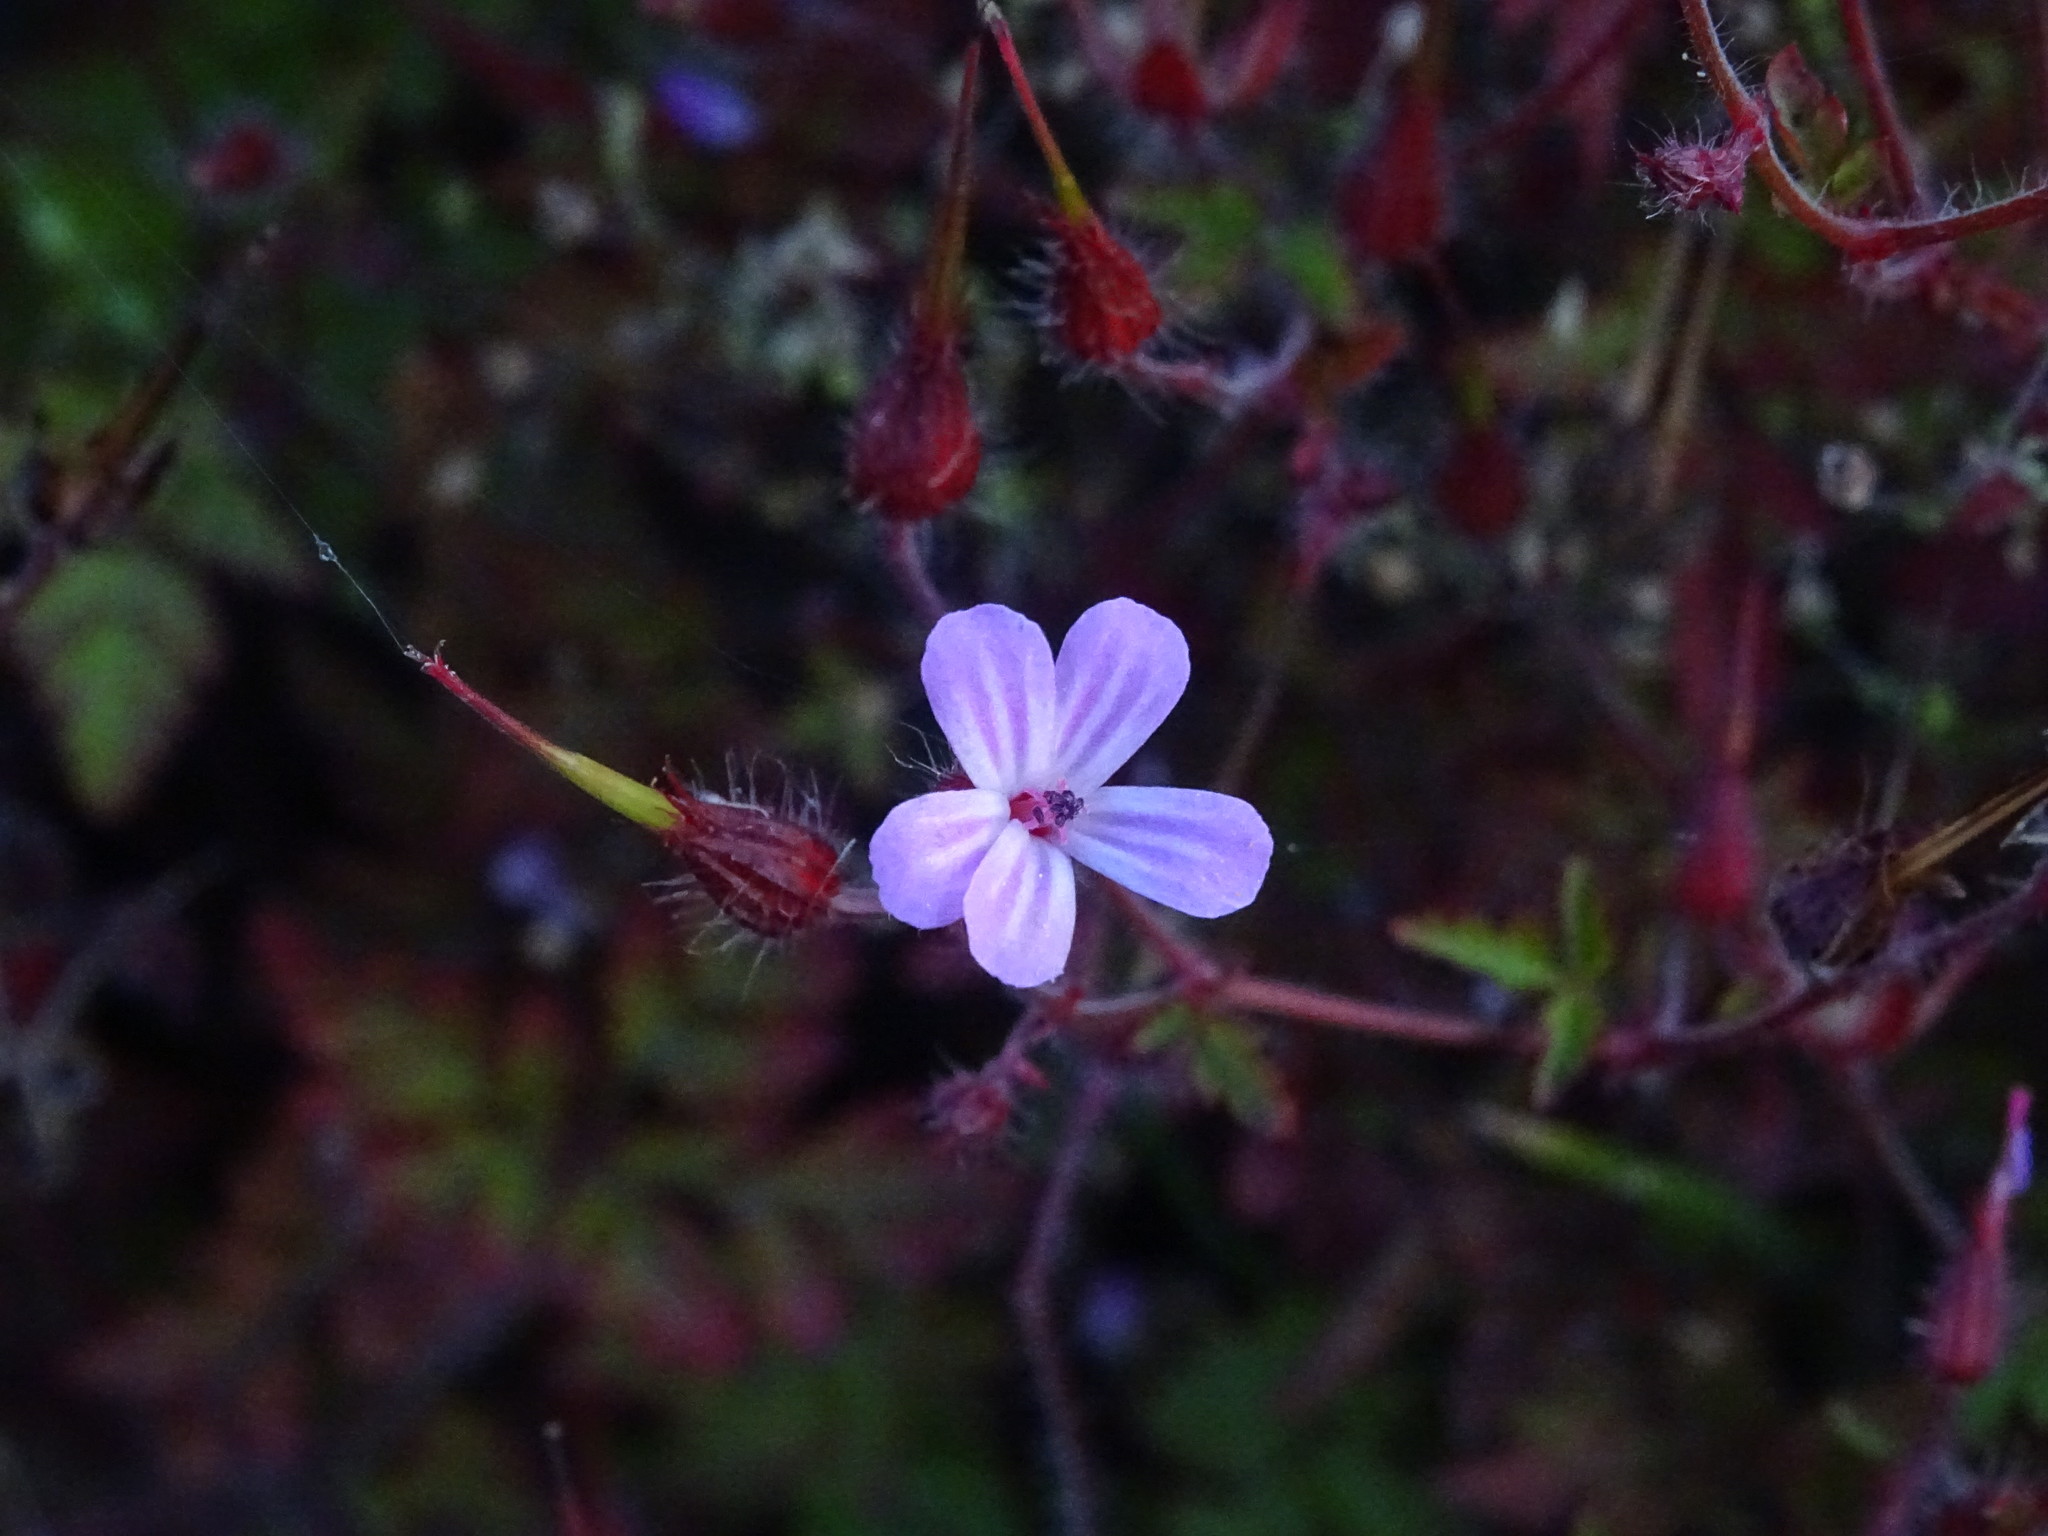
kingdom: Plantae
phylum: Tracheophyta
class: Magnoliopsida
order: Geraniales
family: Geraniaceae
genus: Geranium
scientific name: Geranium robertianum
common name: Herb-robert
